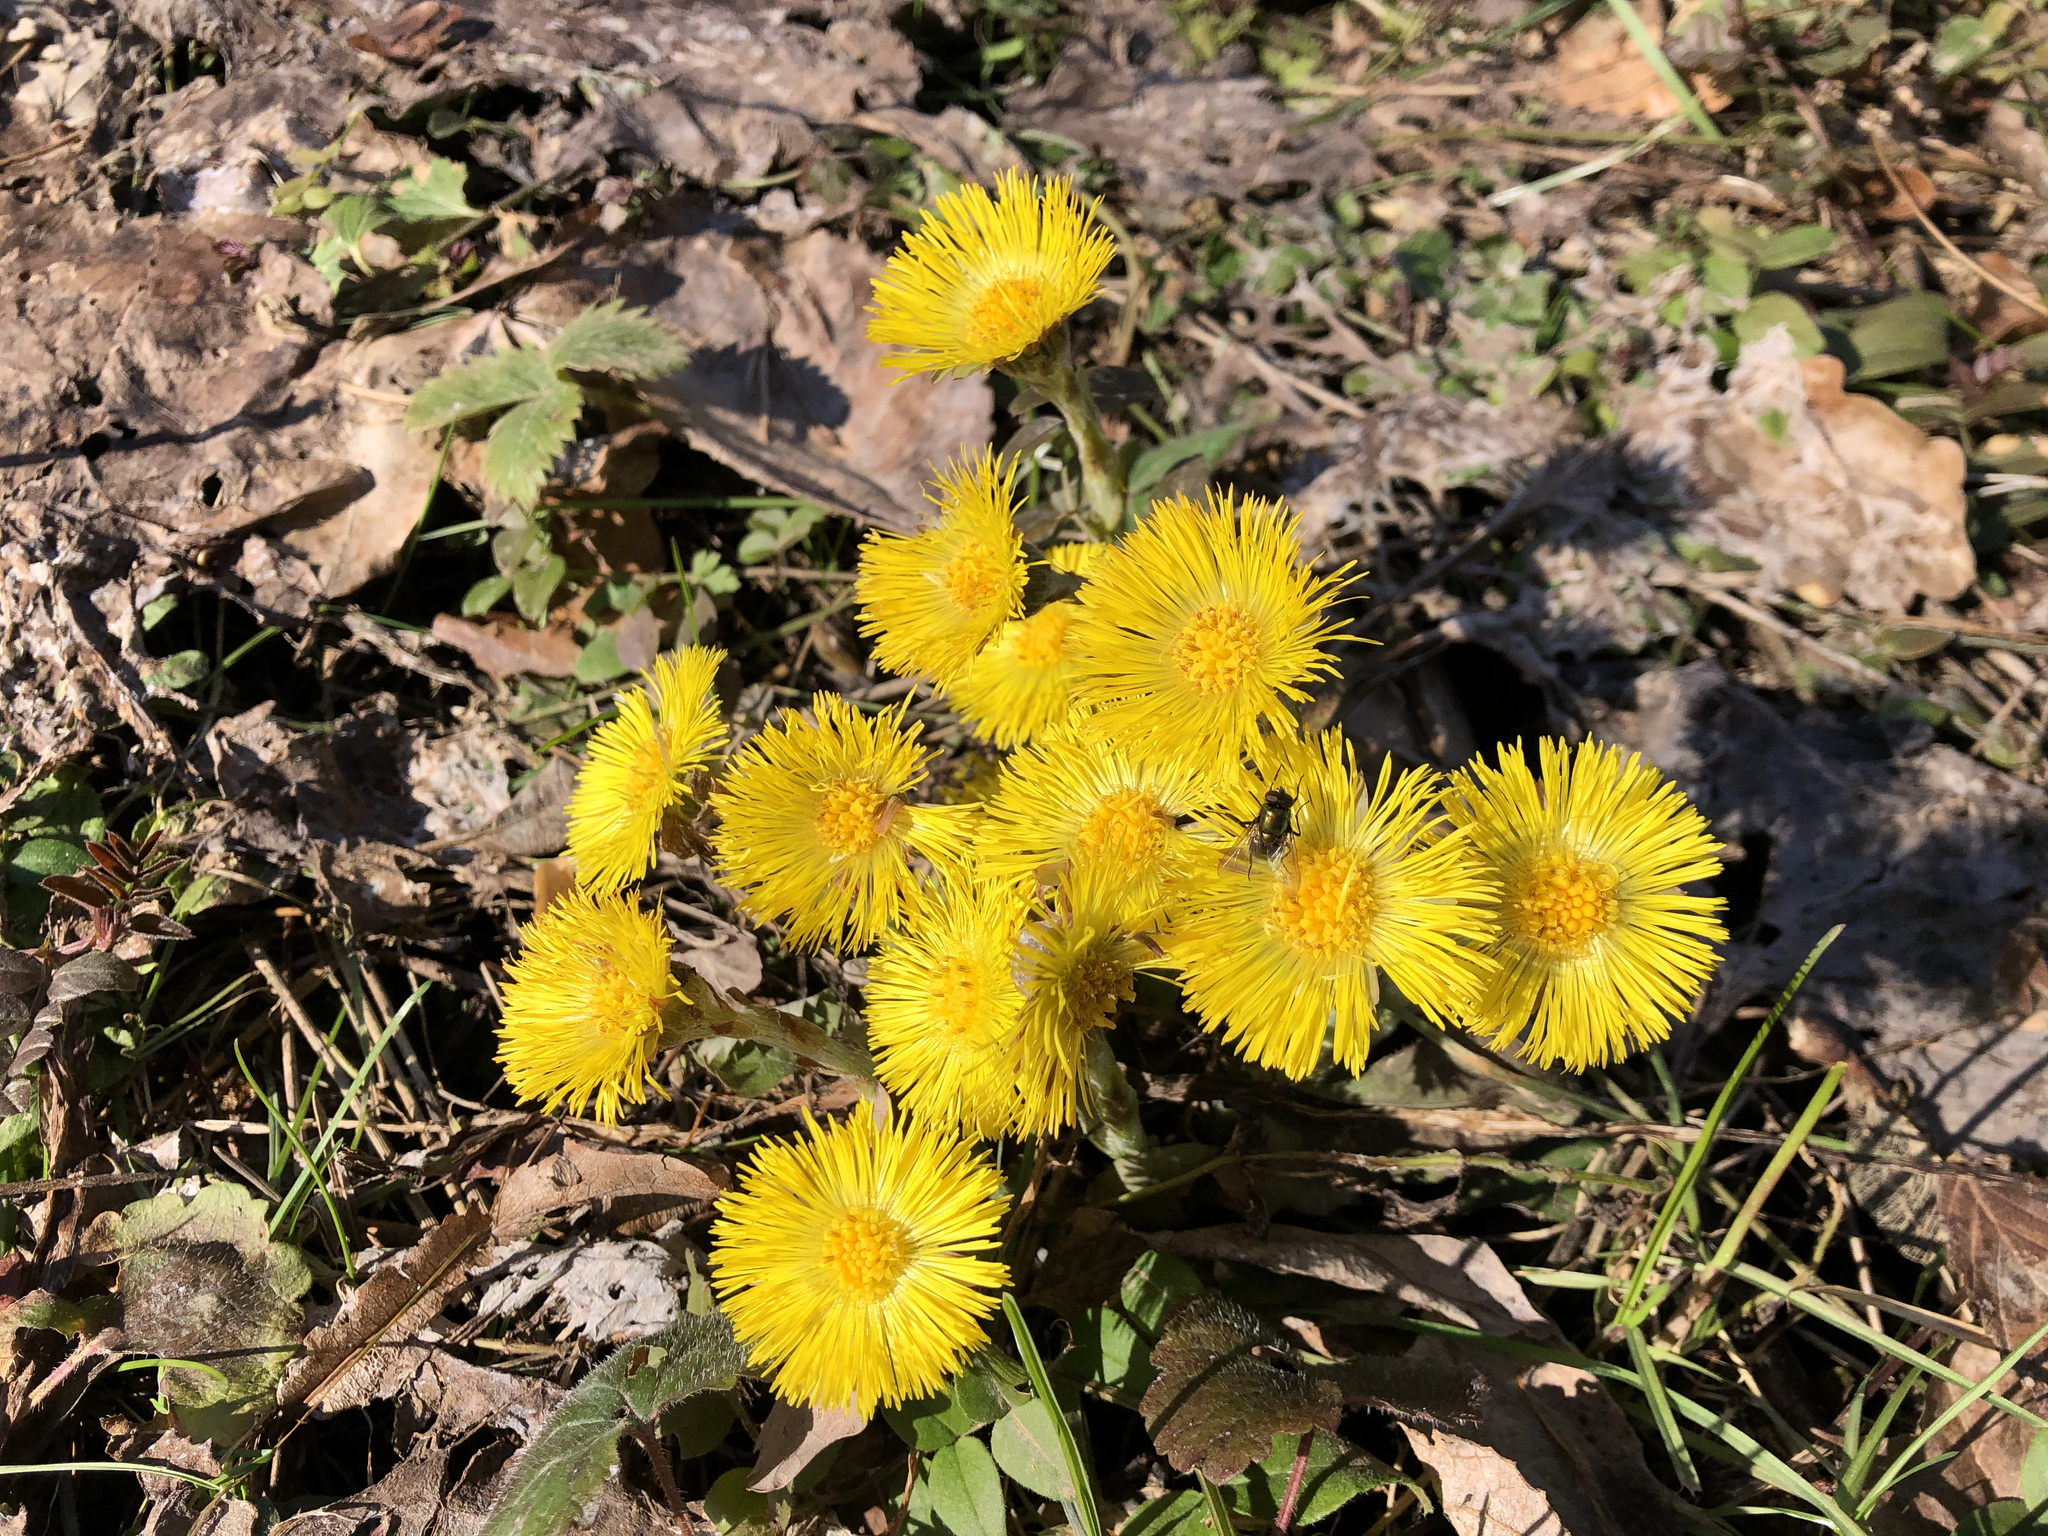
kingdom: Plantae
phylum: Tracheophyta
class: Magnoliopsida
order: Asterales
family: Asteraceae
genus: Tussilago
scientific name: Tussilago farfara
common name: Coltsfoot
